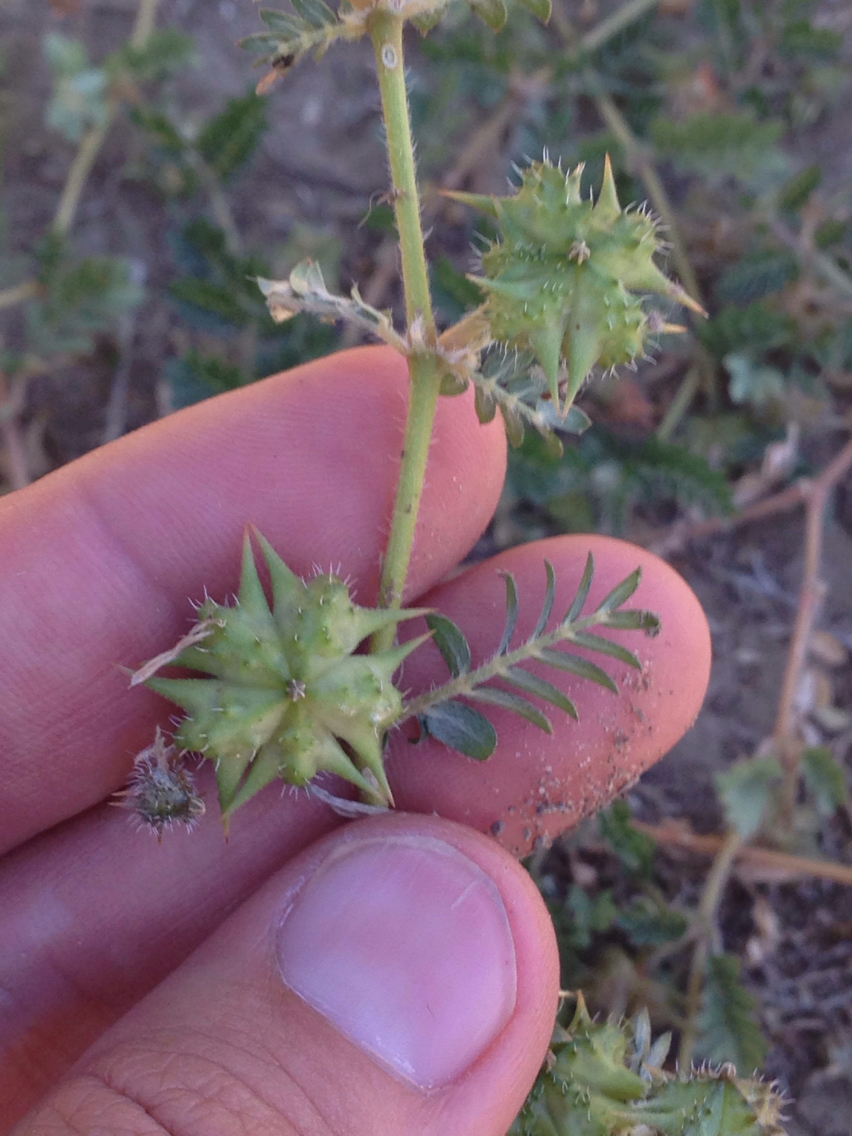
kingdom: Plantae
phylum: Tracheophyta
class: Magnoliopsida
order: Zygophyllales
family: Zygophyllaceae
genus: Tribulus
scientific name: Tribulus terrestris
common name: Puncturevine
